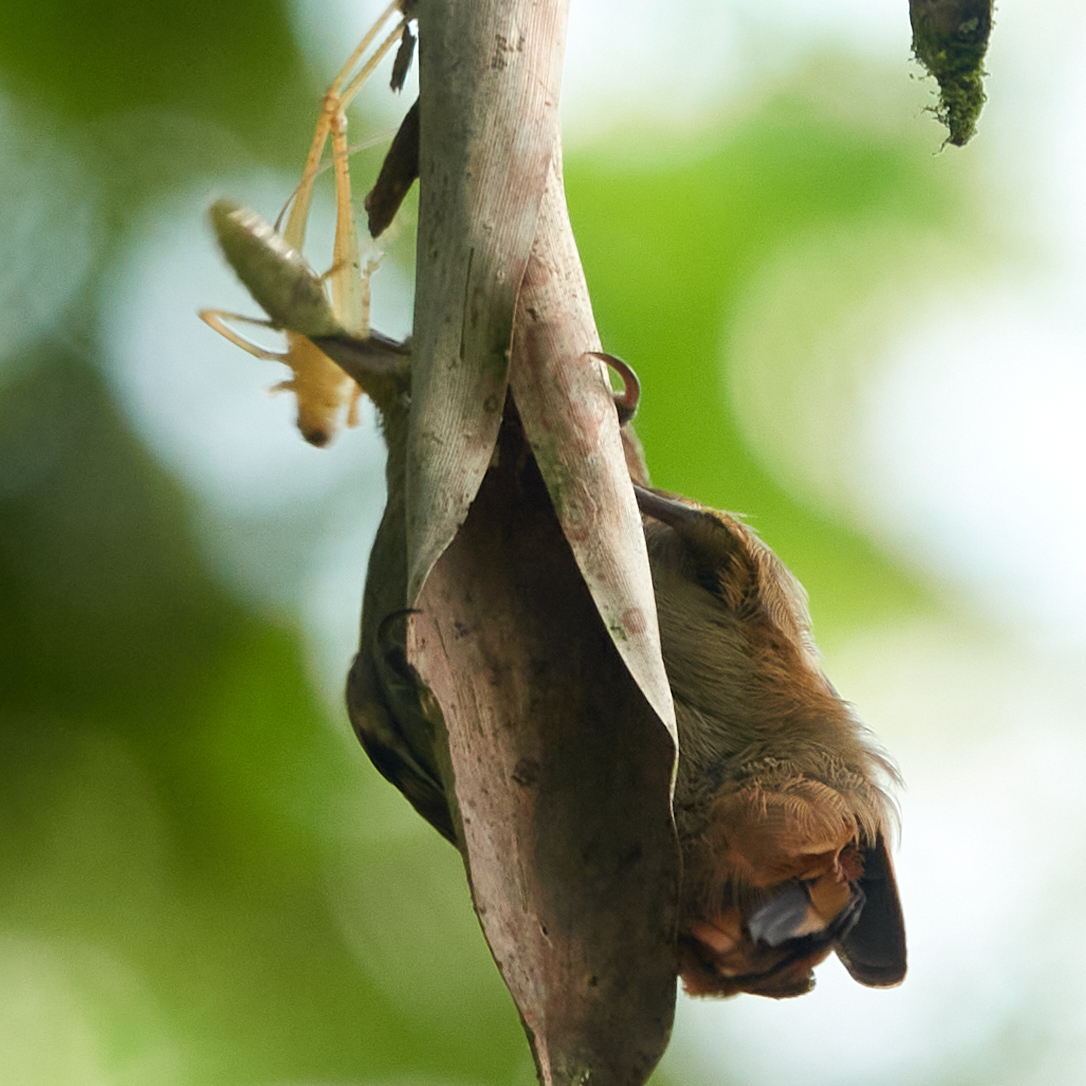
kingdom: Animalia
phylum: Chordata
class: Aves
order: Passeriformes
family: Furnariidae
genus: Xenops
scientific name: Xenops minutus
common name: Plain xenops
